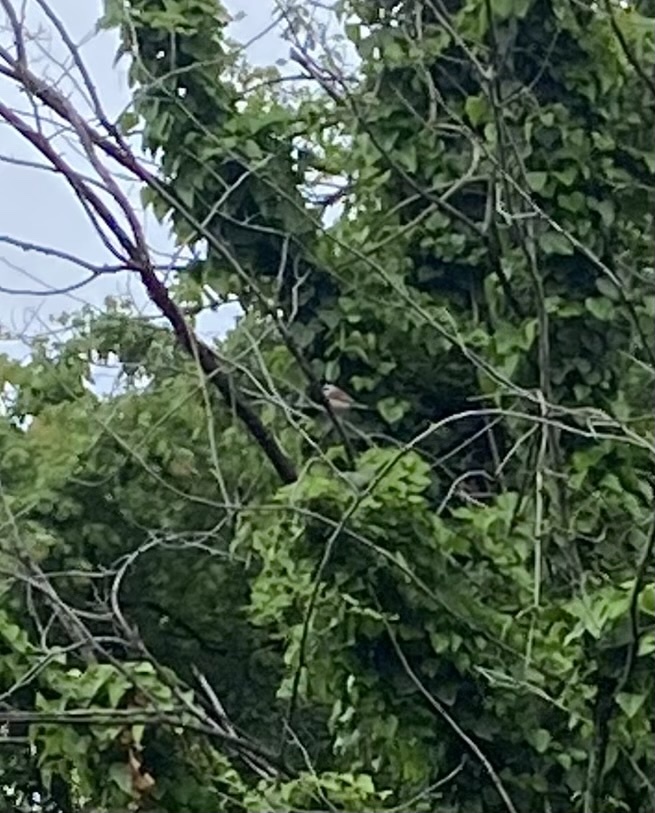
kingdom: Animalia
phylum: Chordata
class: Aves
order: Passeriformes
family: Laniidae
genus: Lanius
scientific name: Lanius collurio
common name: Red-backed shrike
